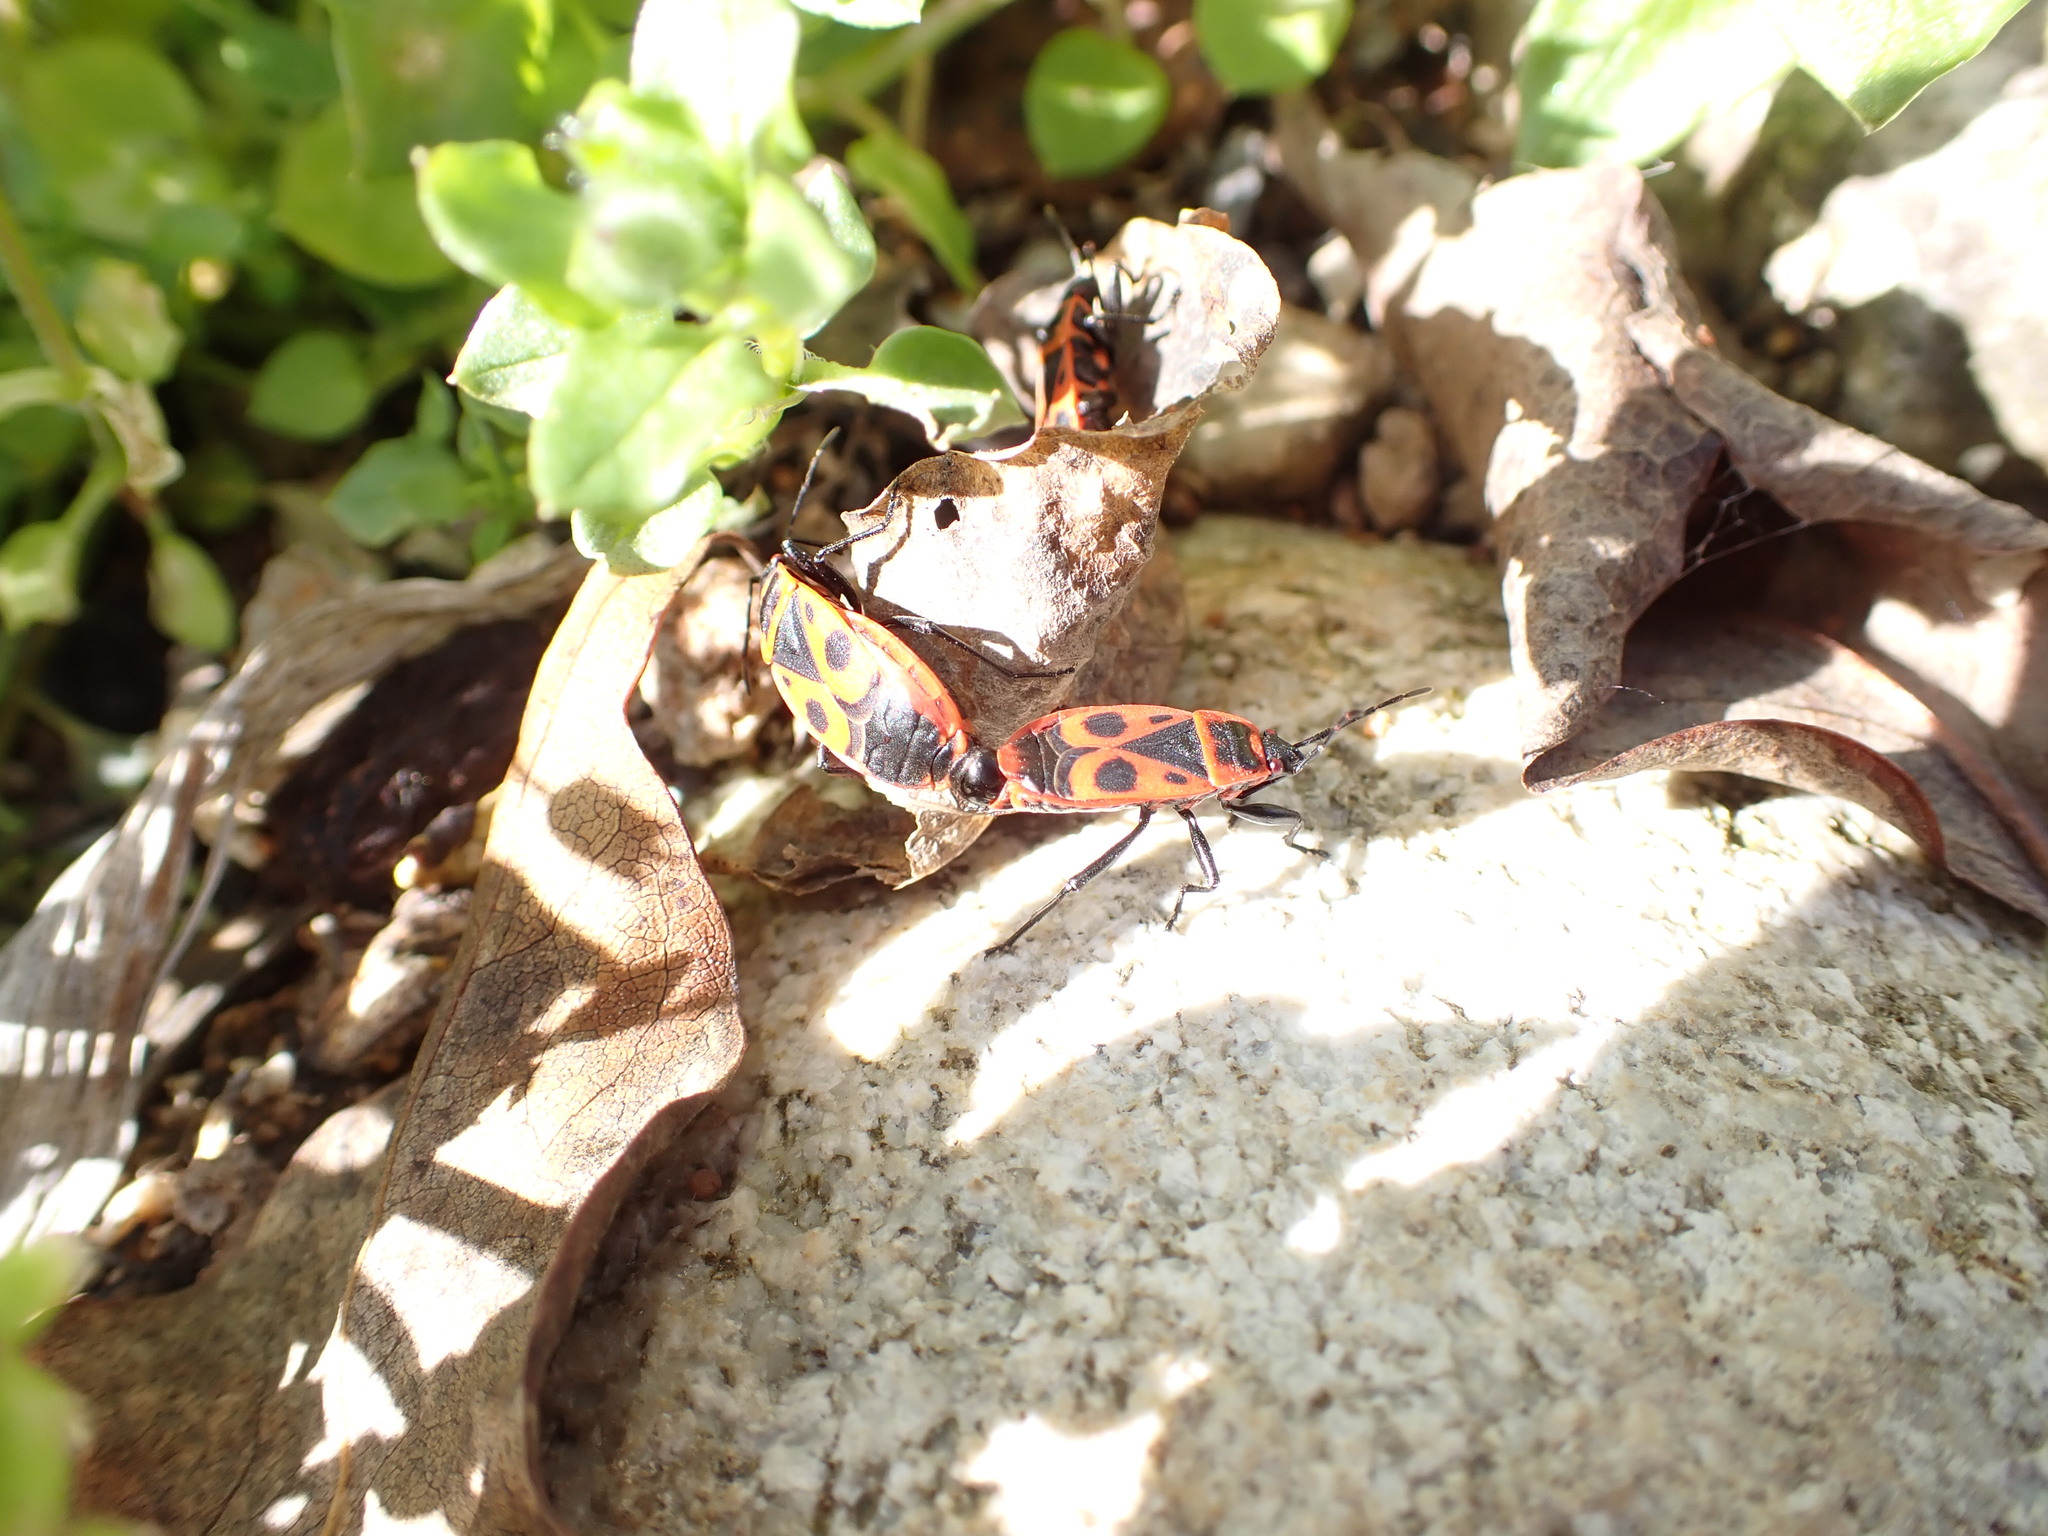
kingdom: Animalia
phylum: Arthropoda
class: Insecta
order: Hemiptera
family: Pyrrhocoridae
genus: Pyrrhocoris
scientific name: Pyrrhocoris apterus
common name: Firebug
